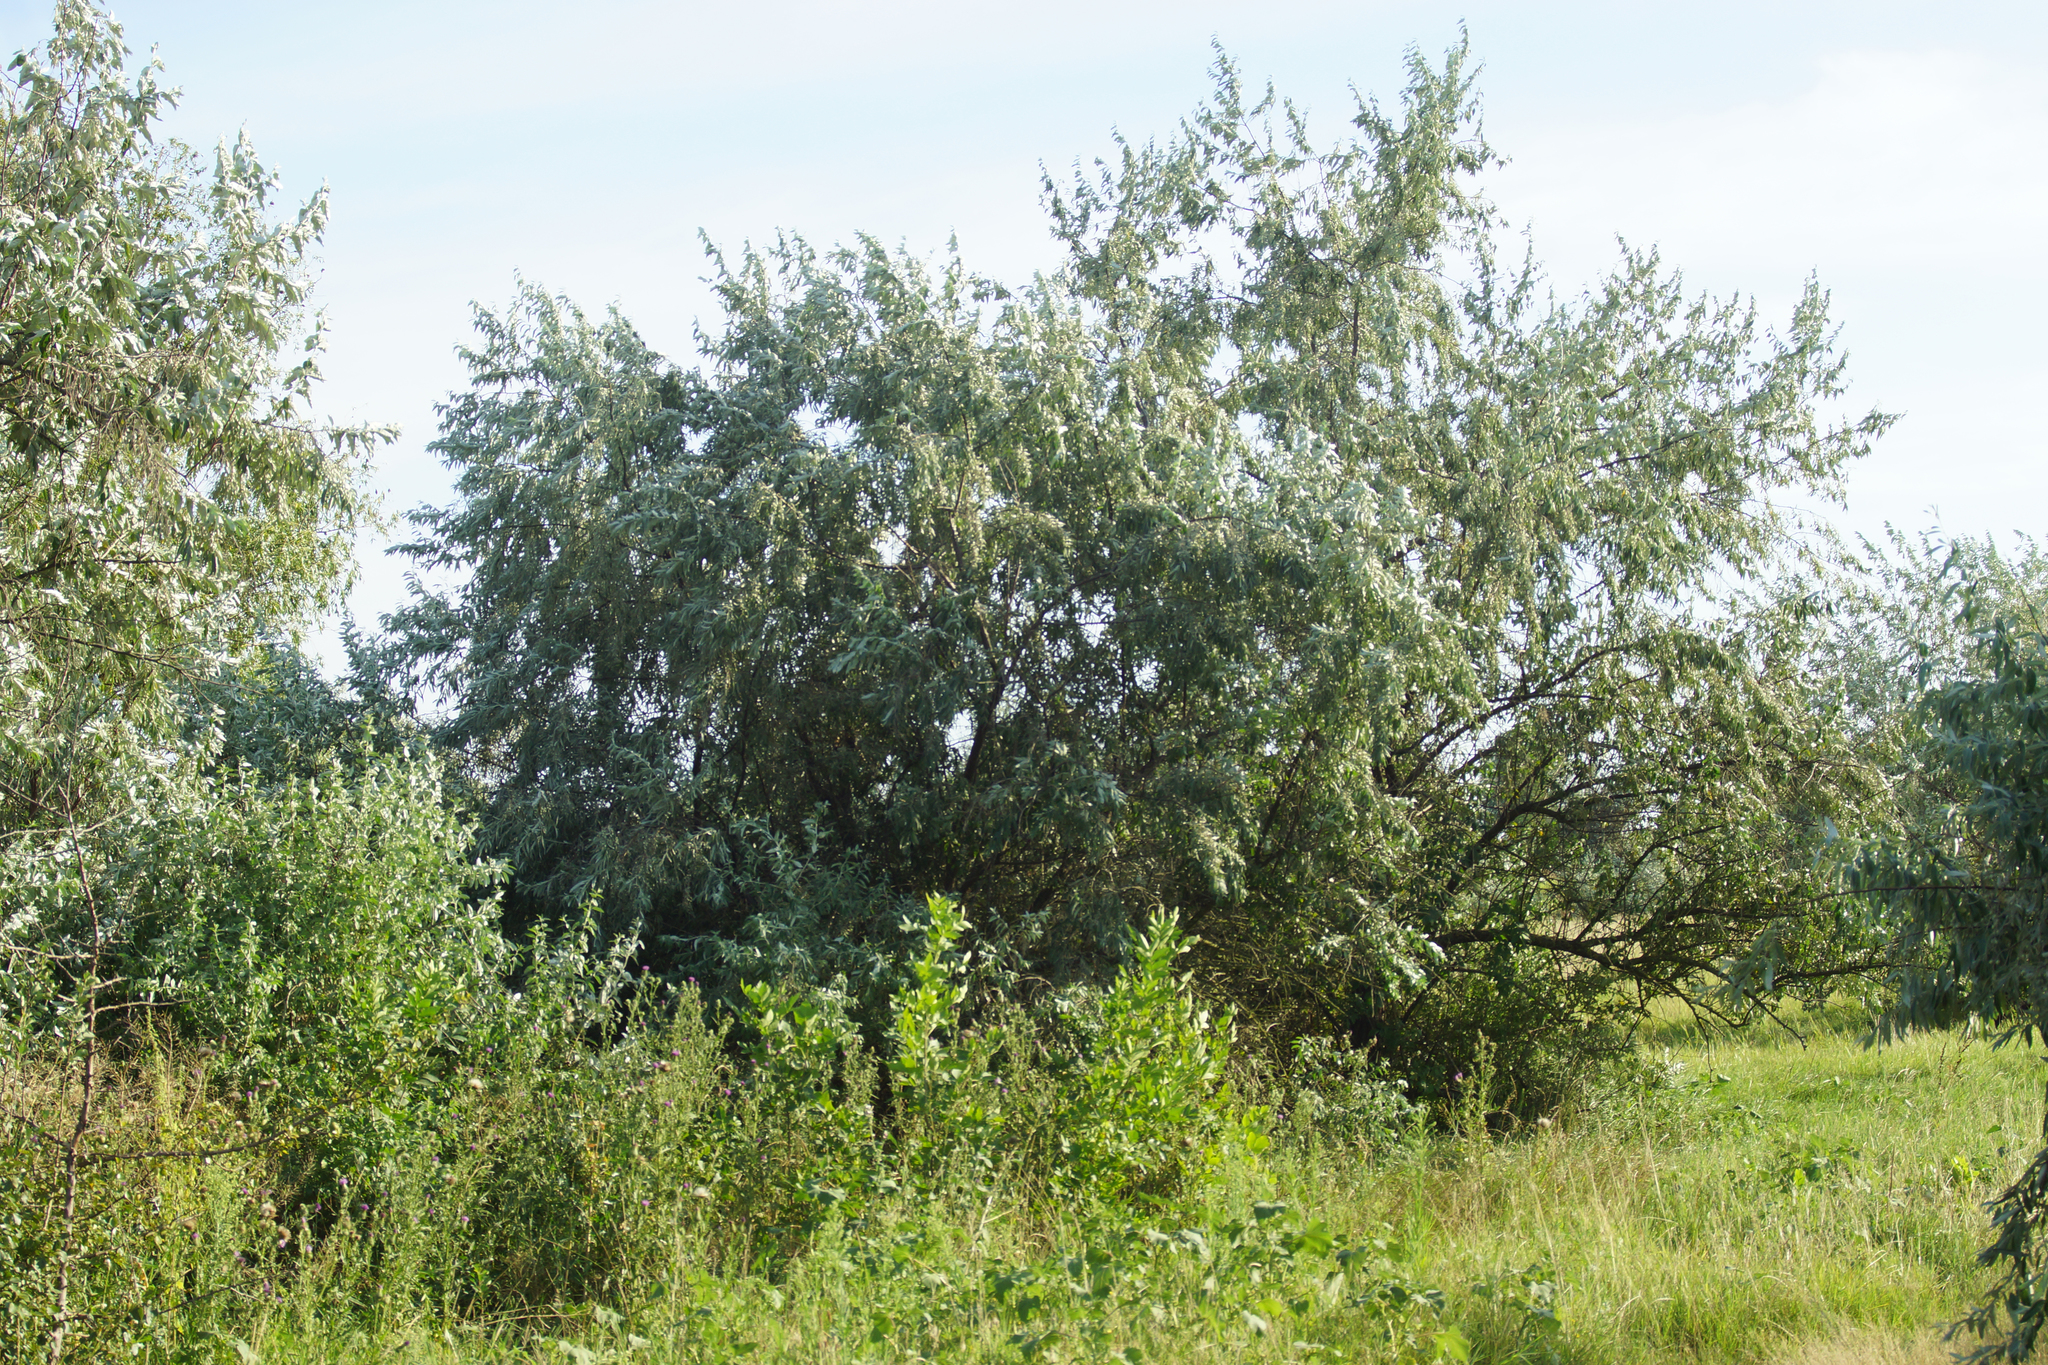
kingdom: Plantae
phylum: Tracheophyta
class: Magnoliopsida
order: Rosales
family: Elaeagnaceae
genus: Elaeagnus
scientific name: Elaeagnus angustifolia
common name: Russian olive
